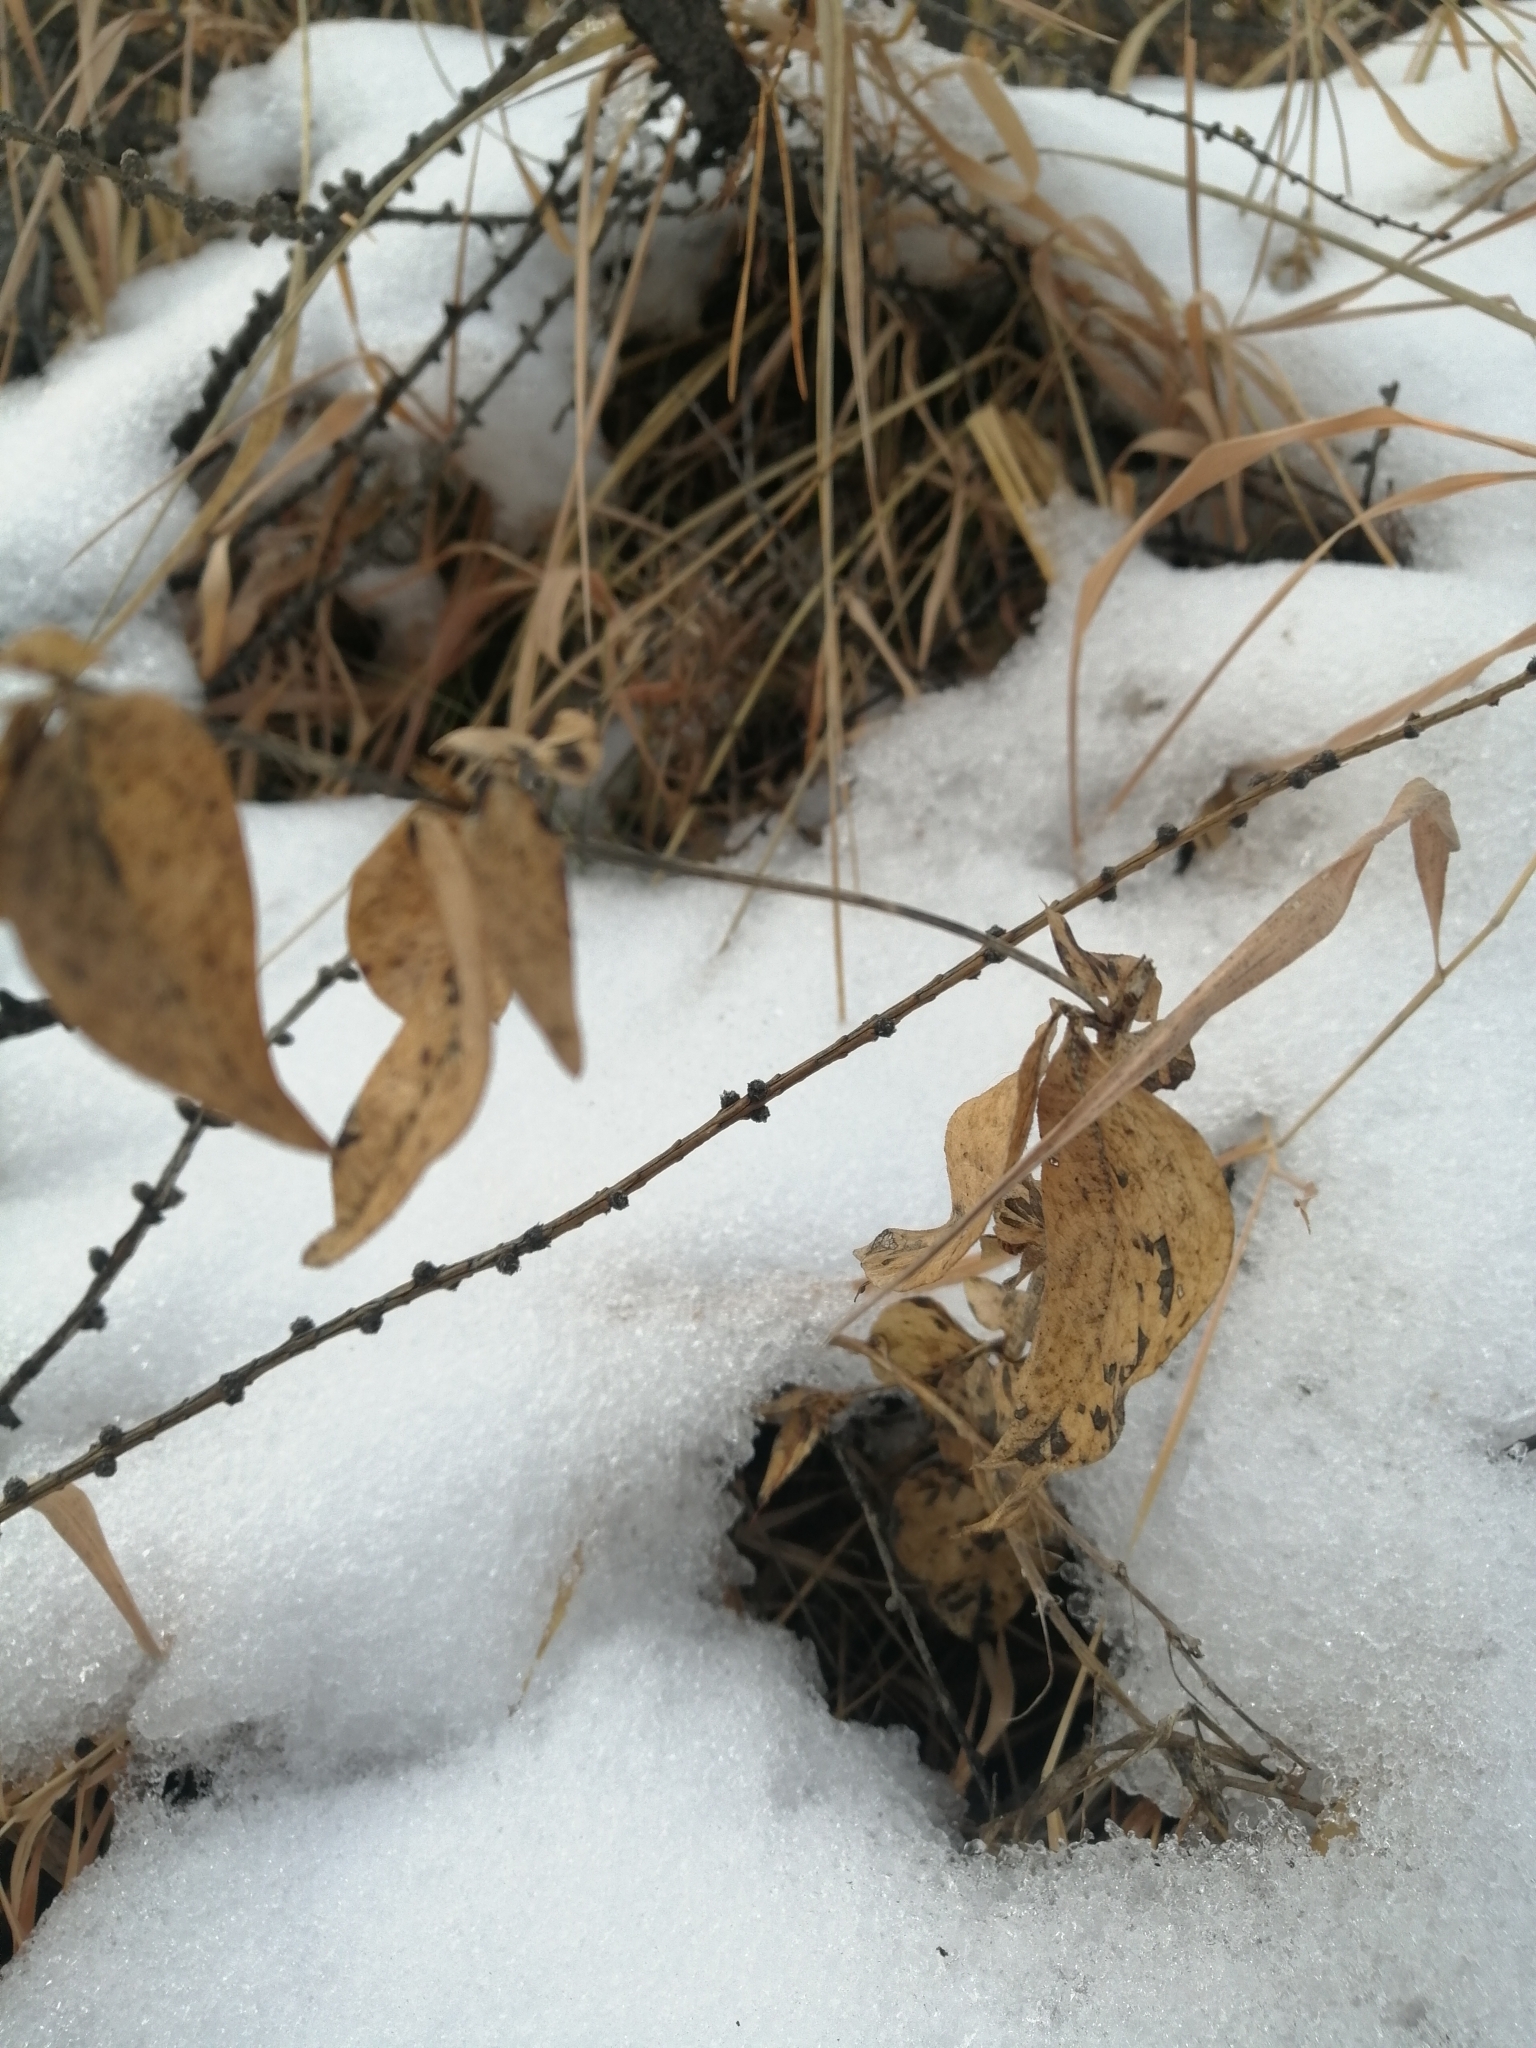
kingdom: Plantae
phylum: Tracheophyta
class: Magnoliopsida
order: Fabales
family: Fabaceae
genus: Vicia
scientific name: Vicia unijuga
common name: Two-leaf vetch
